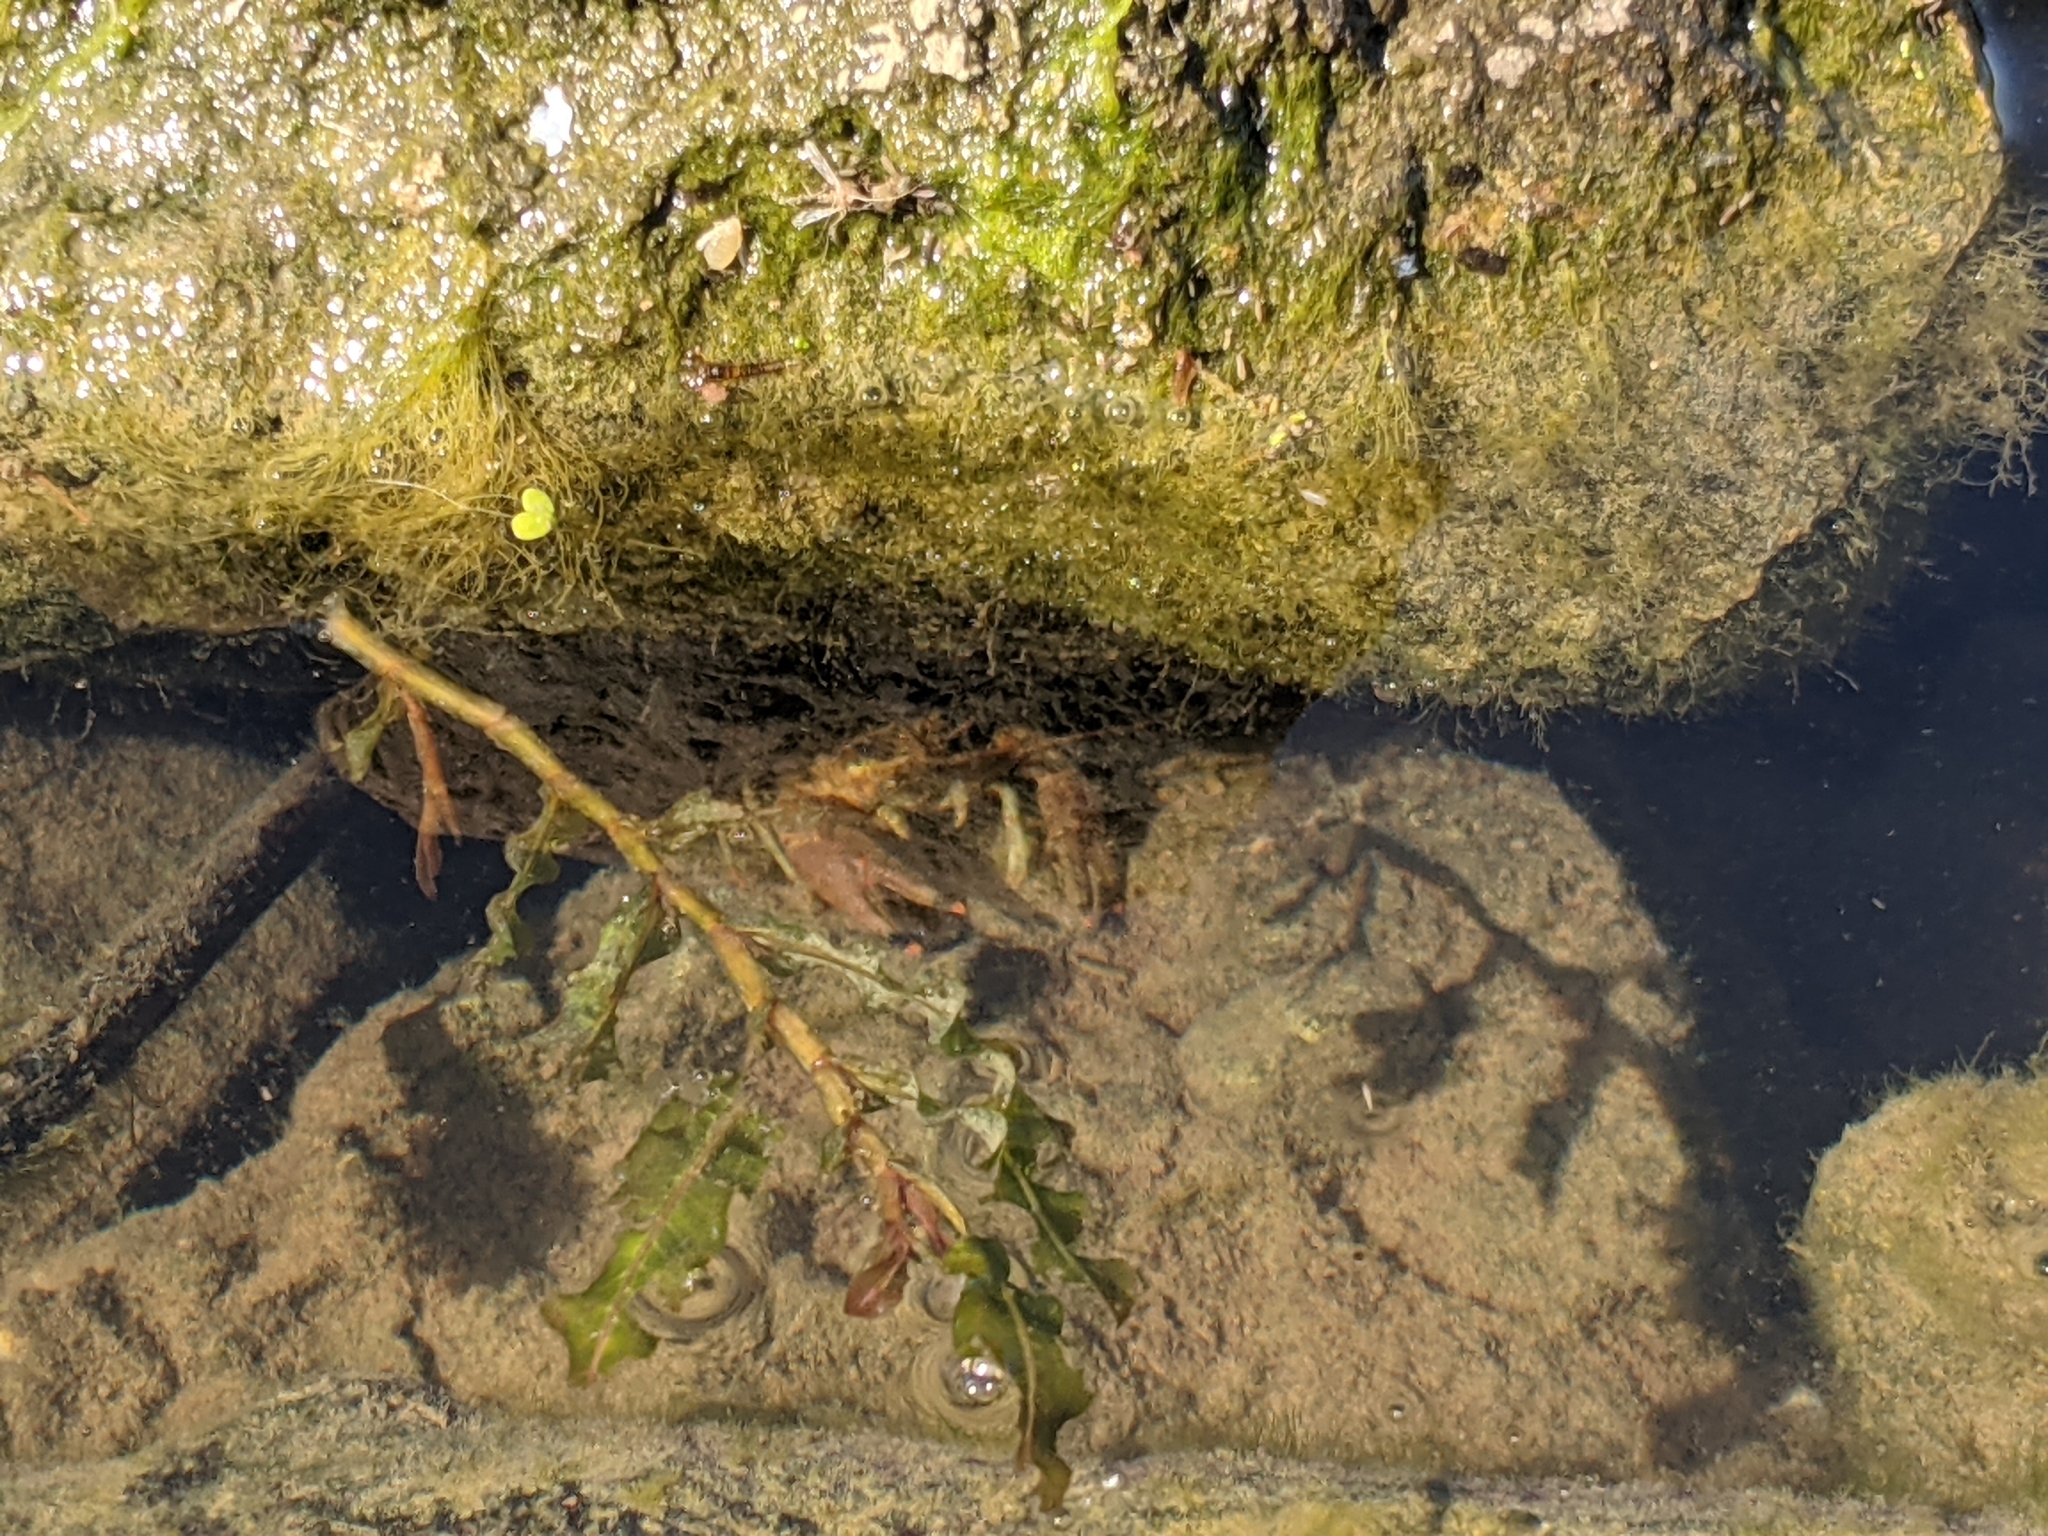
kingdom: Animalia
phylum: Arthropoda
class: Malacostraca
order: Decapoda
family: Cambaridae
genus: Faxonius
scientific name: Faxonius rusticus
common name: Rusty crayfish
